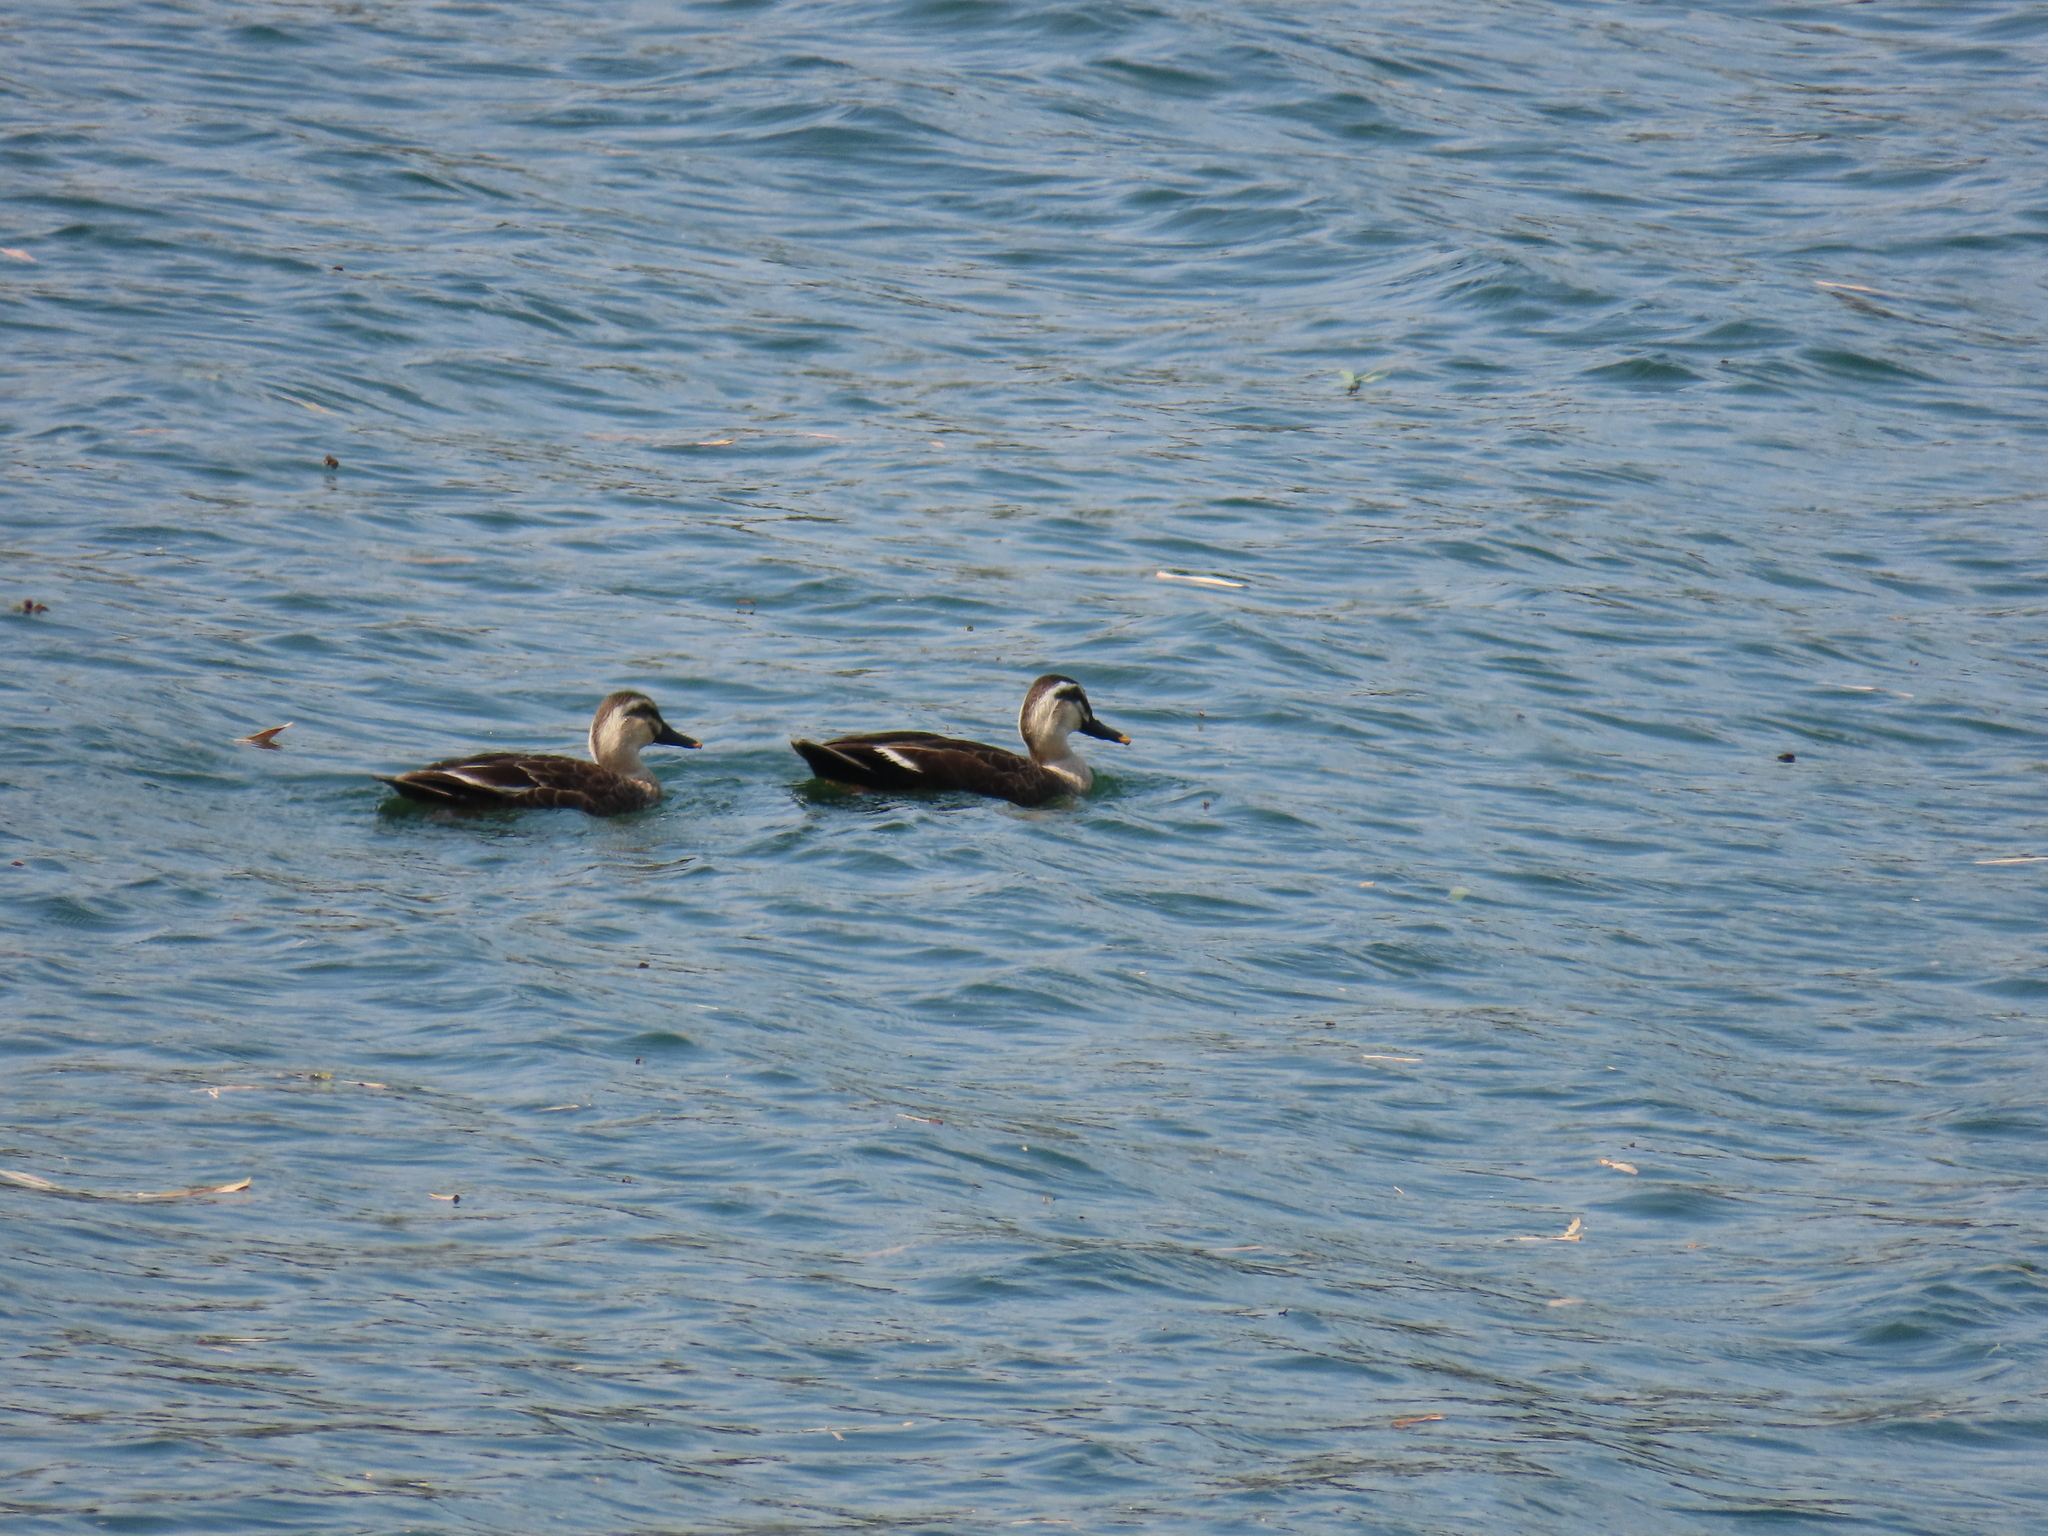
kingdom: Animalia
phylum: Chordata
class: Aves
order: Anseriformes
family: Anatidae
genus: Anas
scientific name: Anas zonorhyncha
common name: Eastern spot-billed duck
